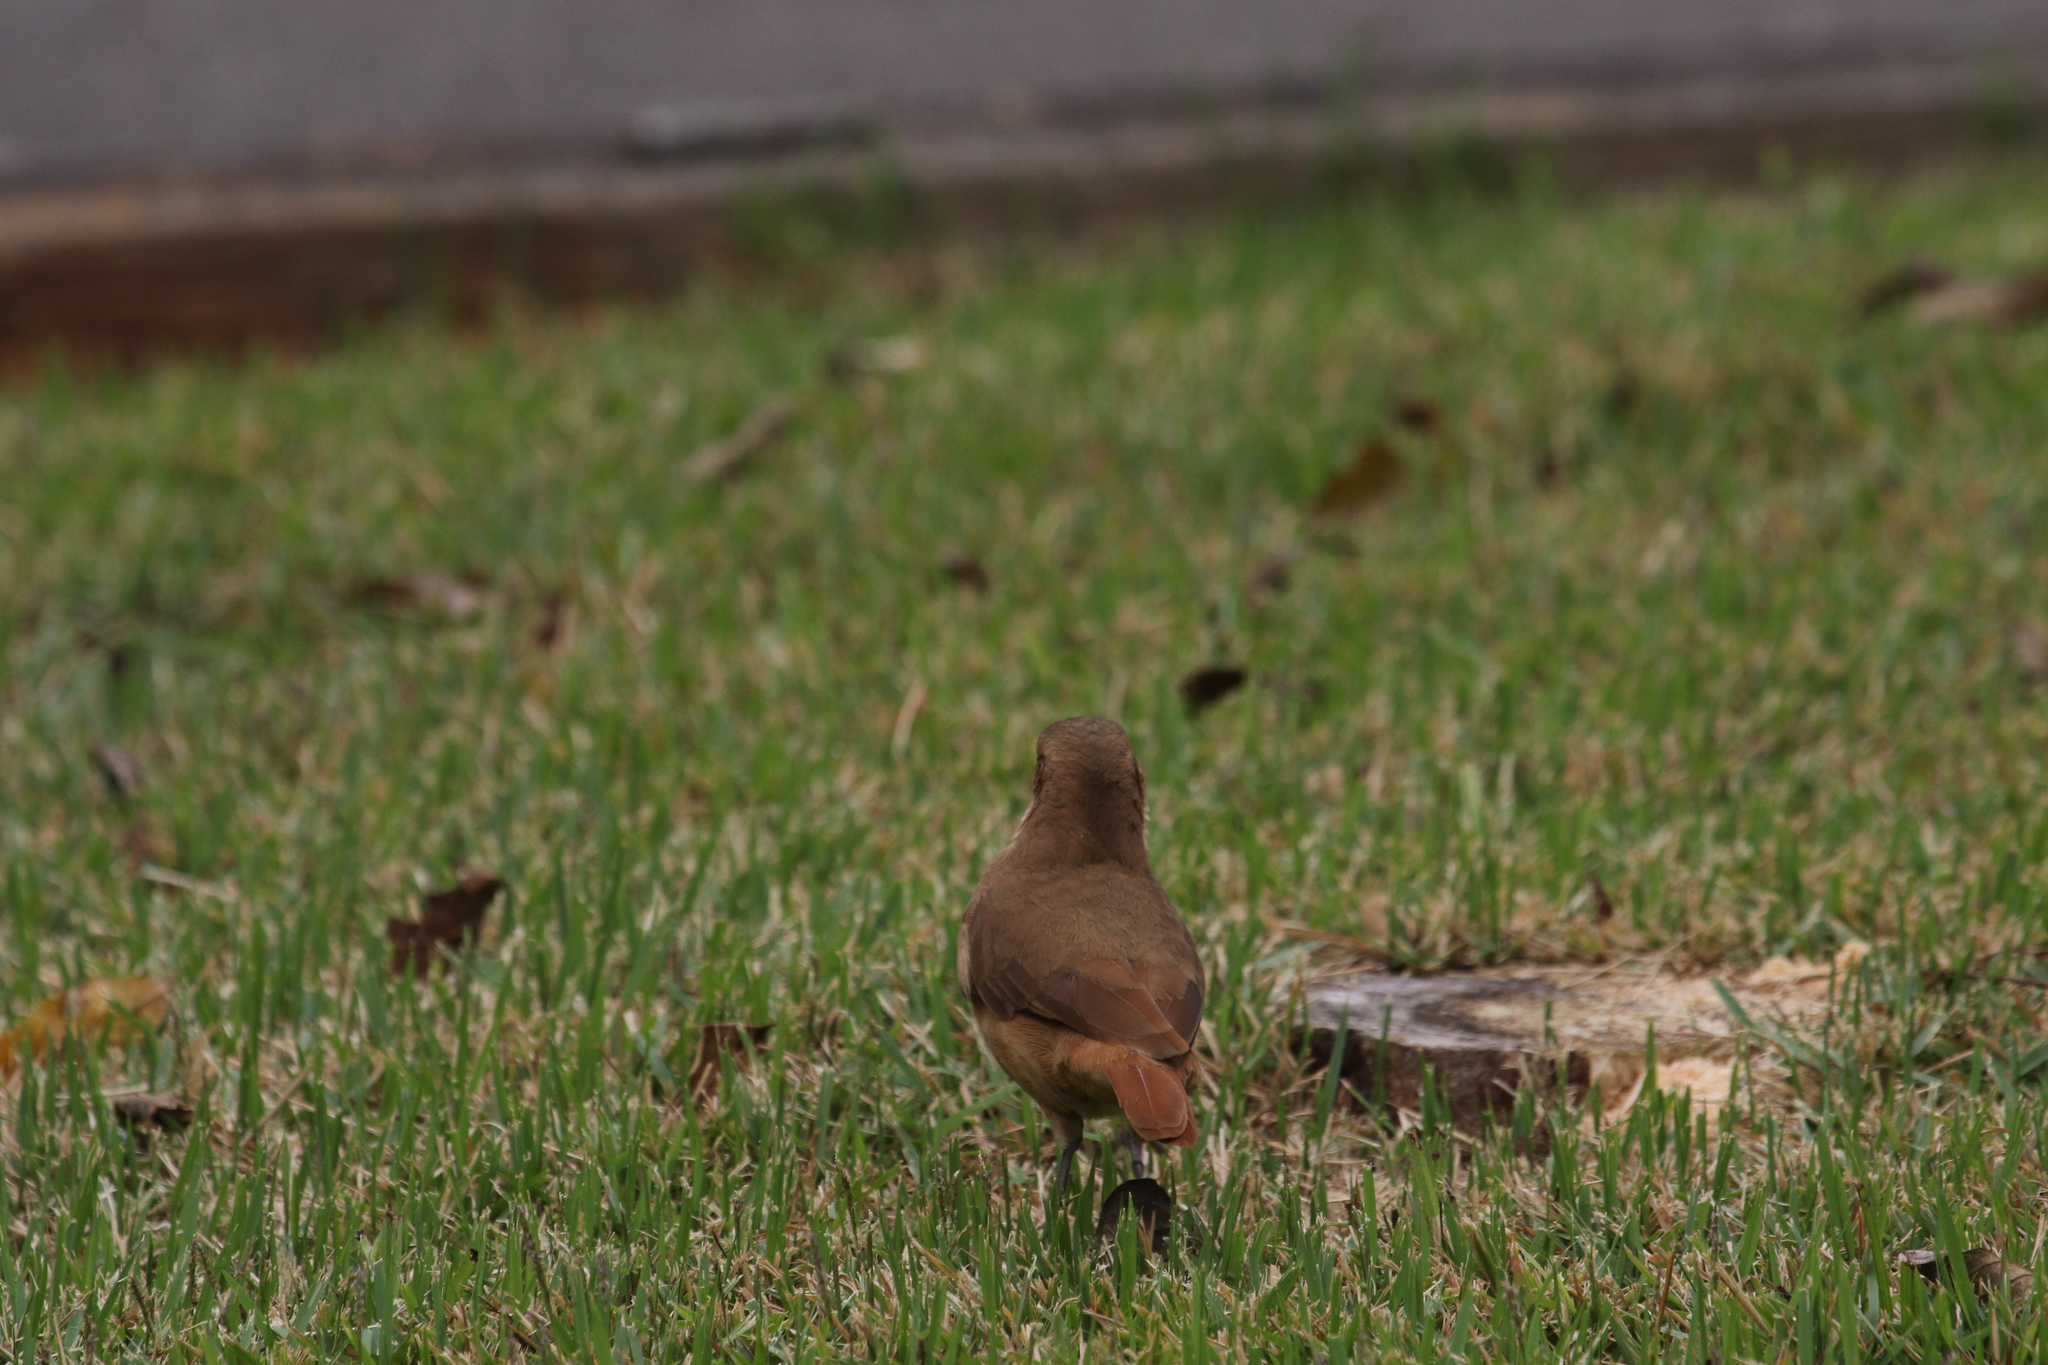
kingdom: Animalia
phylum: Chordata
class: Aves
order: Passeriformes
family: Furnariidae
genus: Furnarius
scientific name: Furnarius rufus
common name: Rufous hornero
